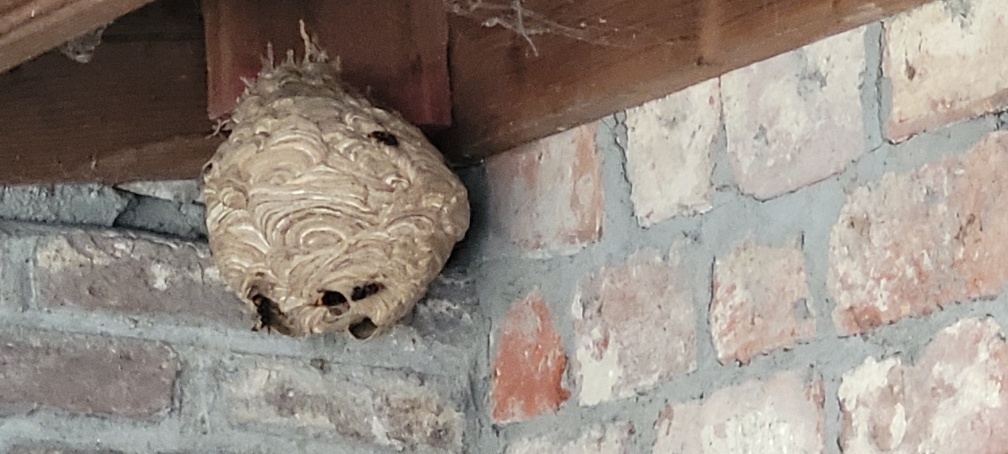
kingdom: Animalia
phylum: Arthropoda
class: Insecta
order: Hymenoptera
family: Vespidae
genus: Vespa
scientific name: Vespa velutina
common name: Asian hornet
